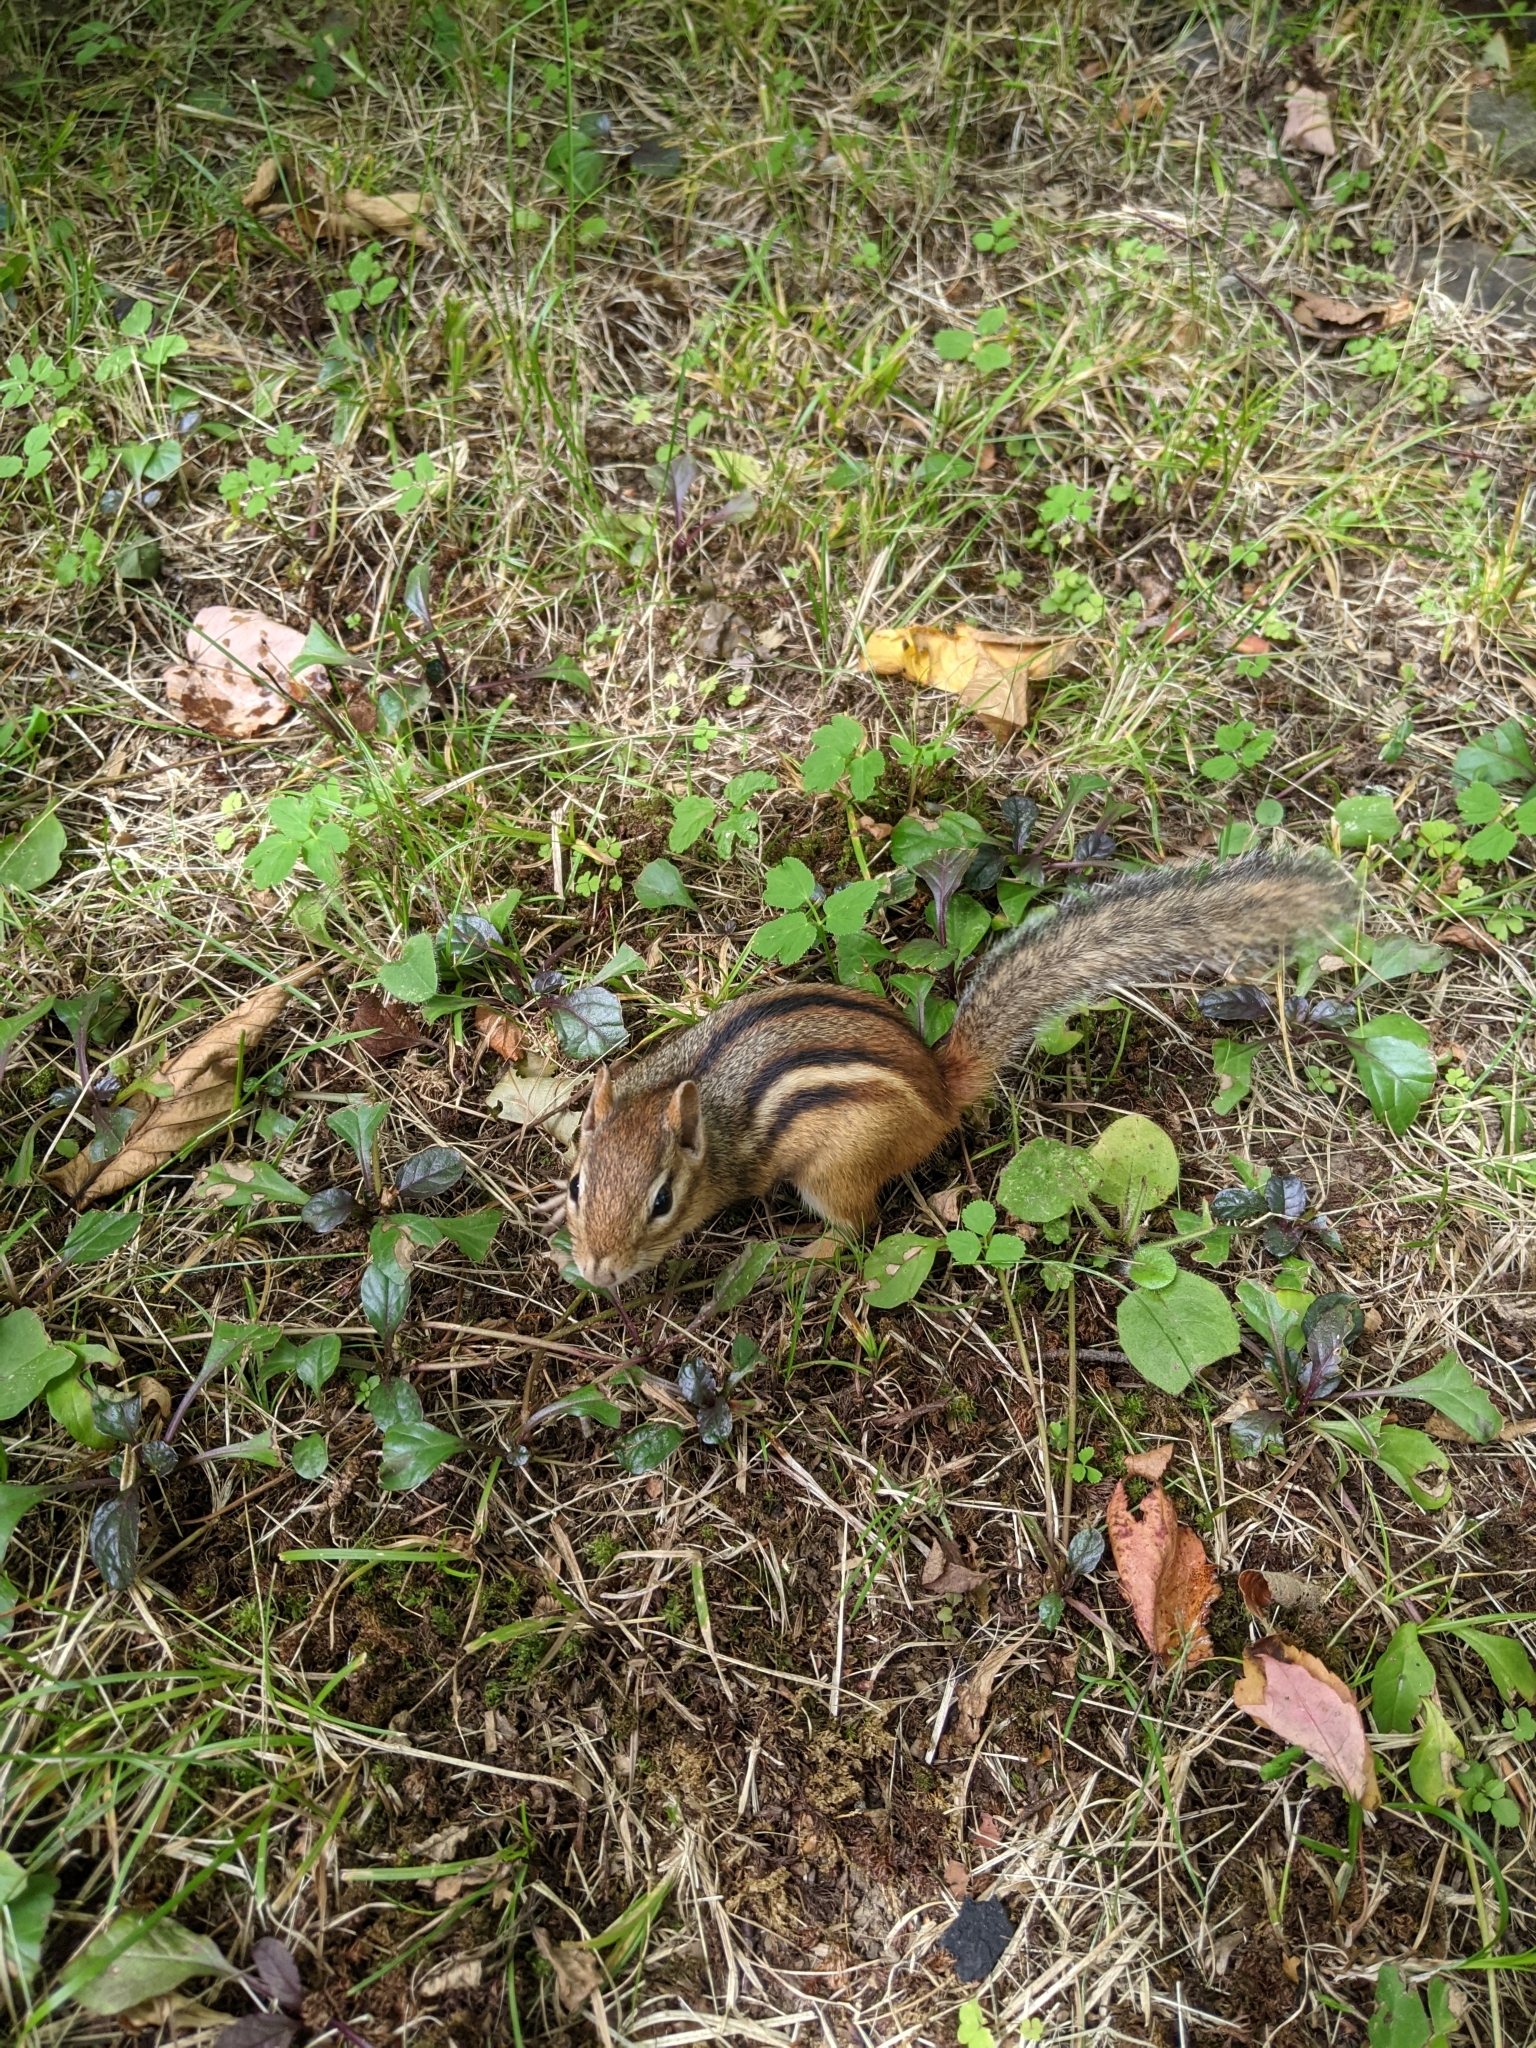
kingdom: Animalia
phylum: Chordata
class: Mammalia
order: Rodentia
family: Sciuridae
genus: Tamias
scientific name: Tamias striatus
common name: Eastern chipmunk
